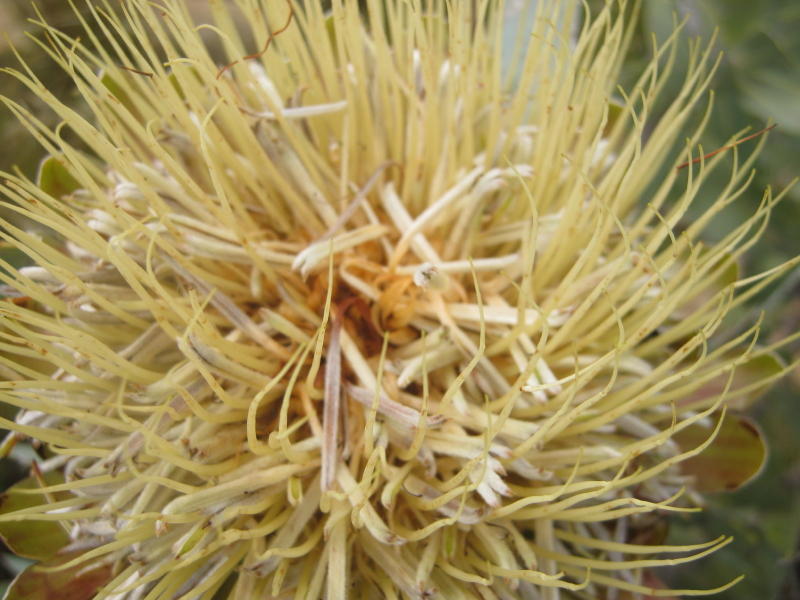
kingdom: Plantae
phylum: Tracheophyta
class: Magnoliopsida
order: Proteales
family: Proteaceae
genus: Protea
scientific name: Protea nitida
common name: Tree protea
